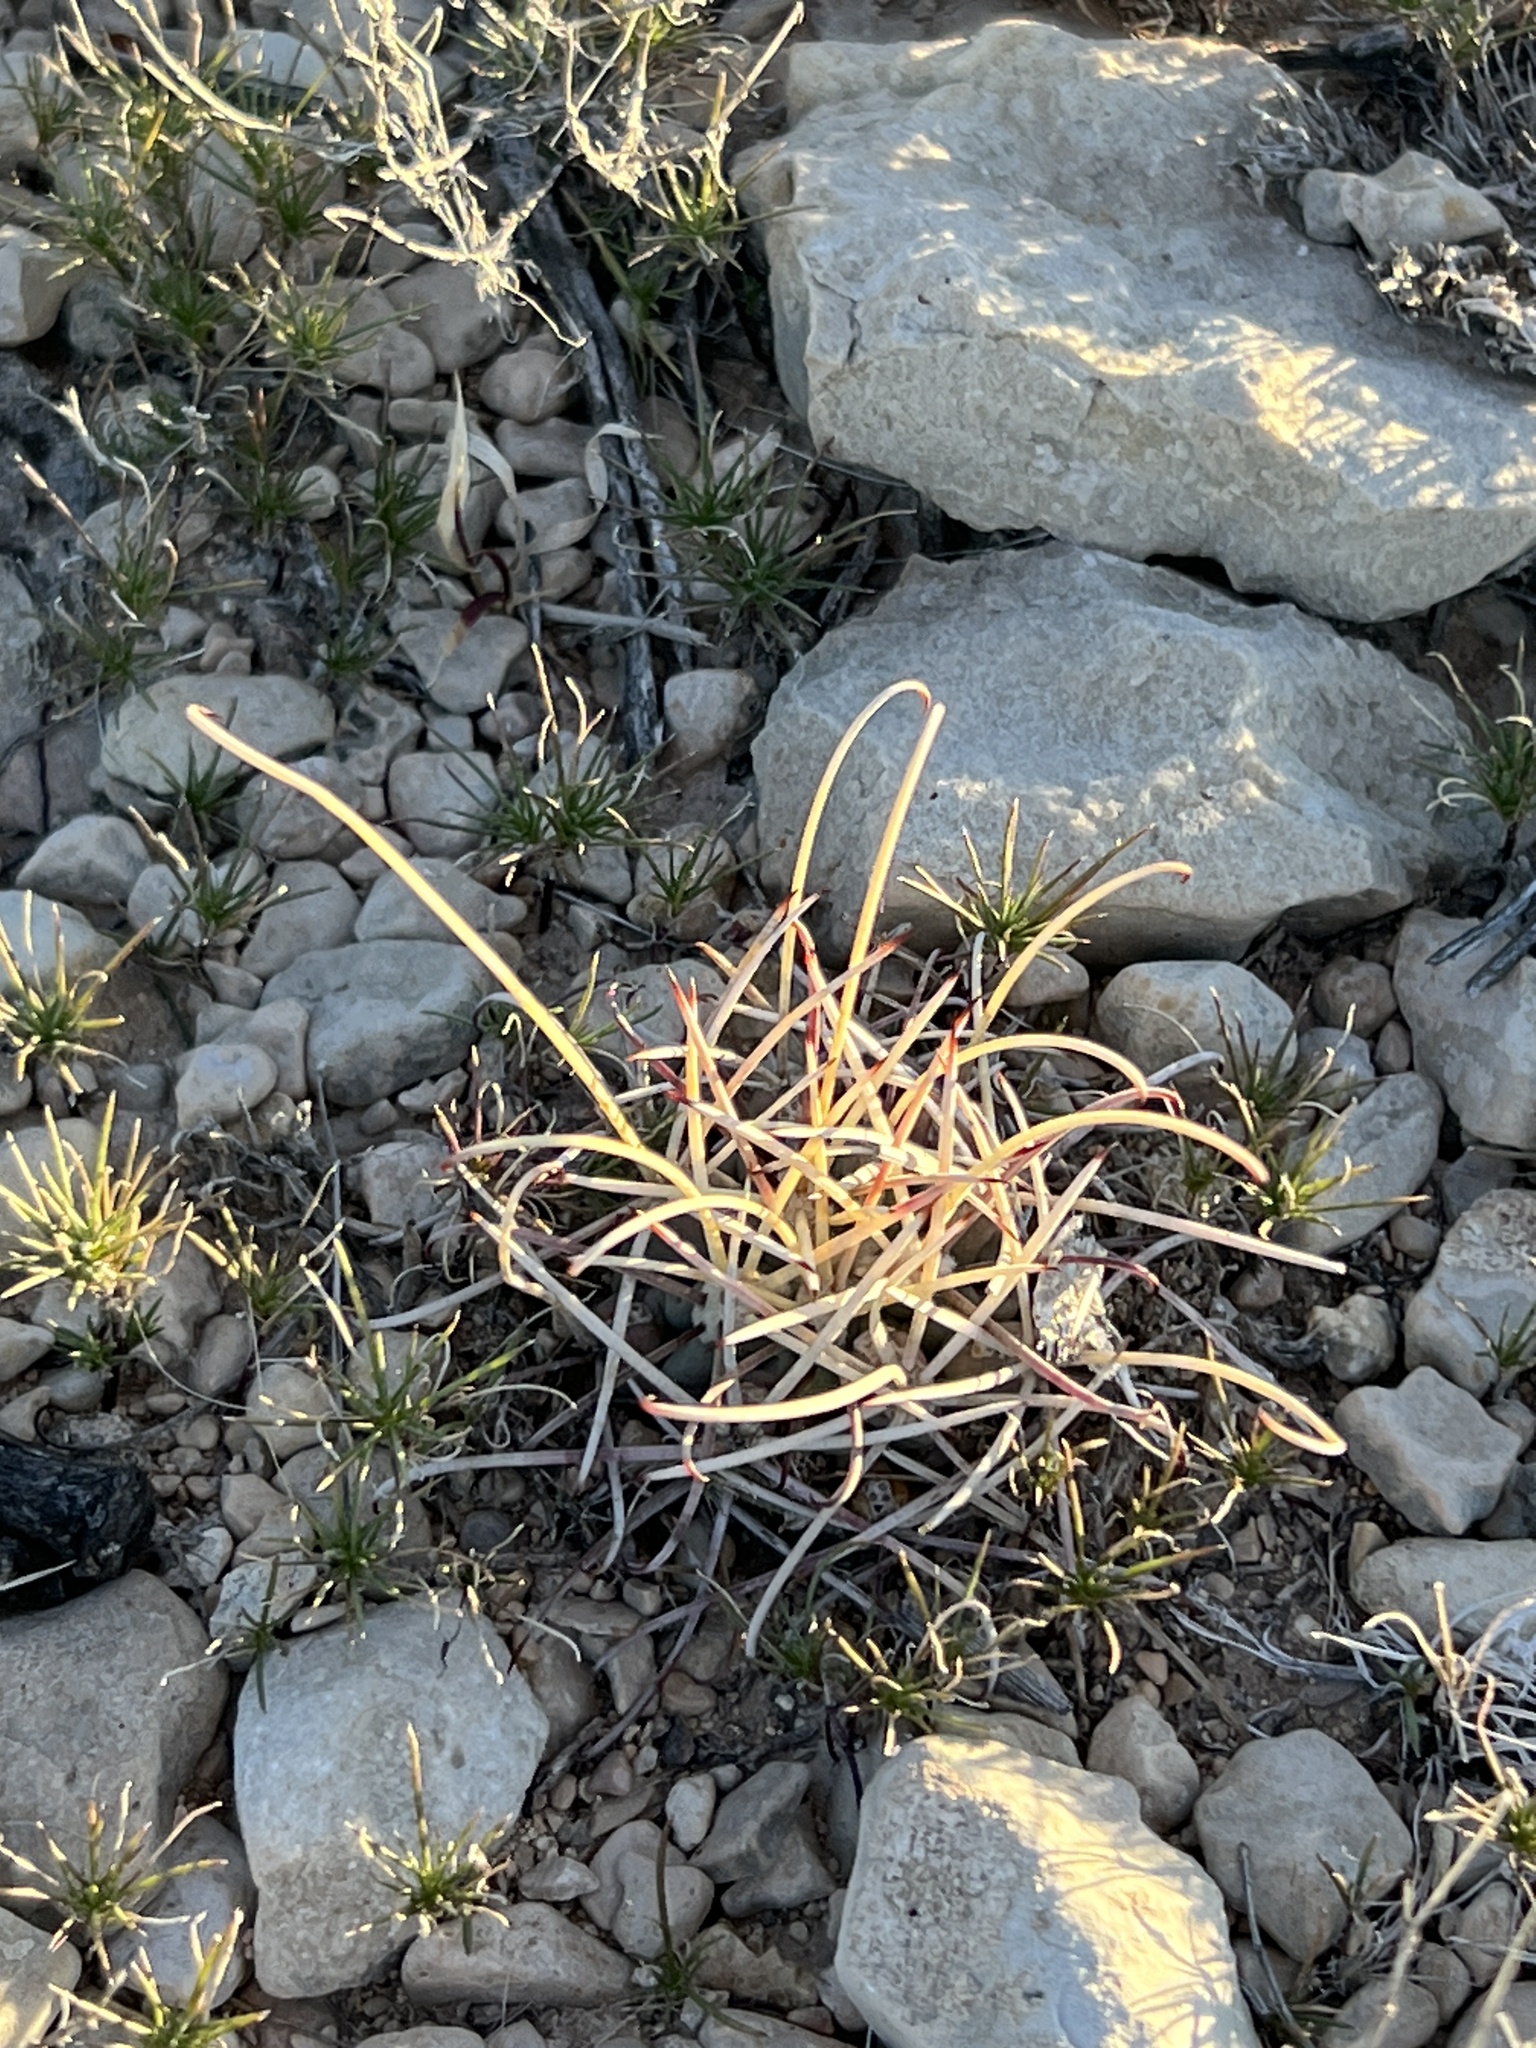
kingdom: Plantae
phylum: Tracheophyta
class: Magnoliopsida
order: Caryophyllales
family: Cactaceae
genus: Ferocactus
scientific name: Ferocactus uncinatus
